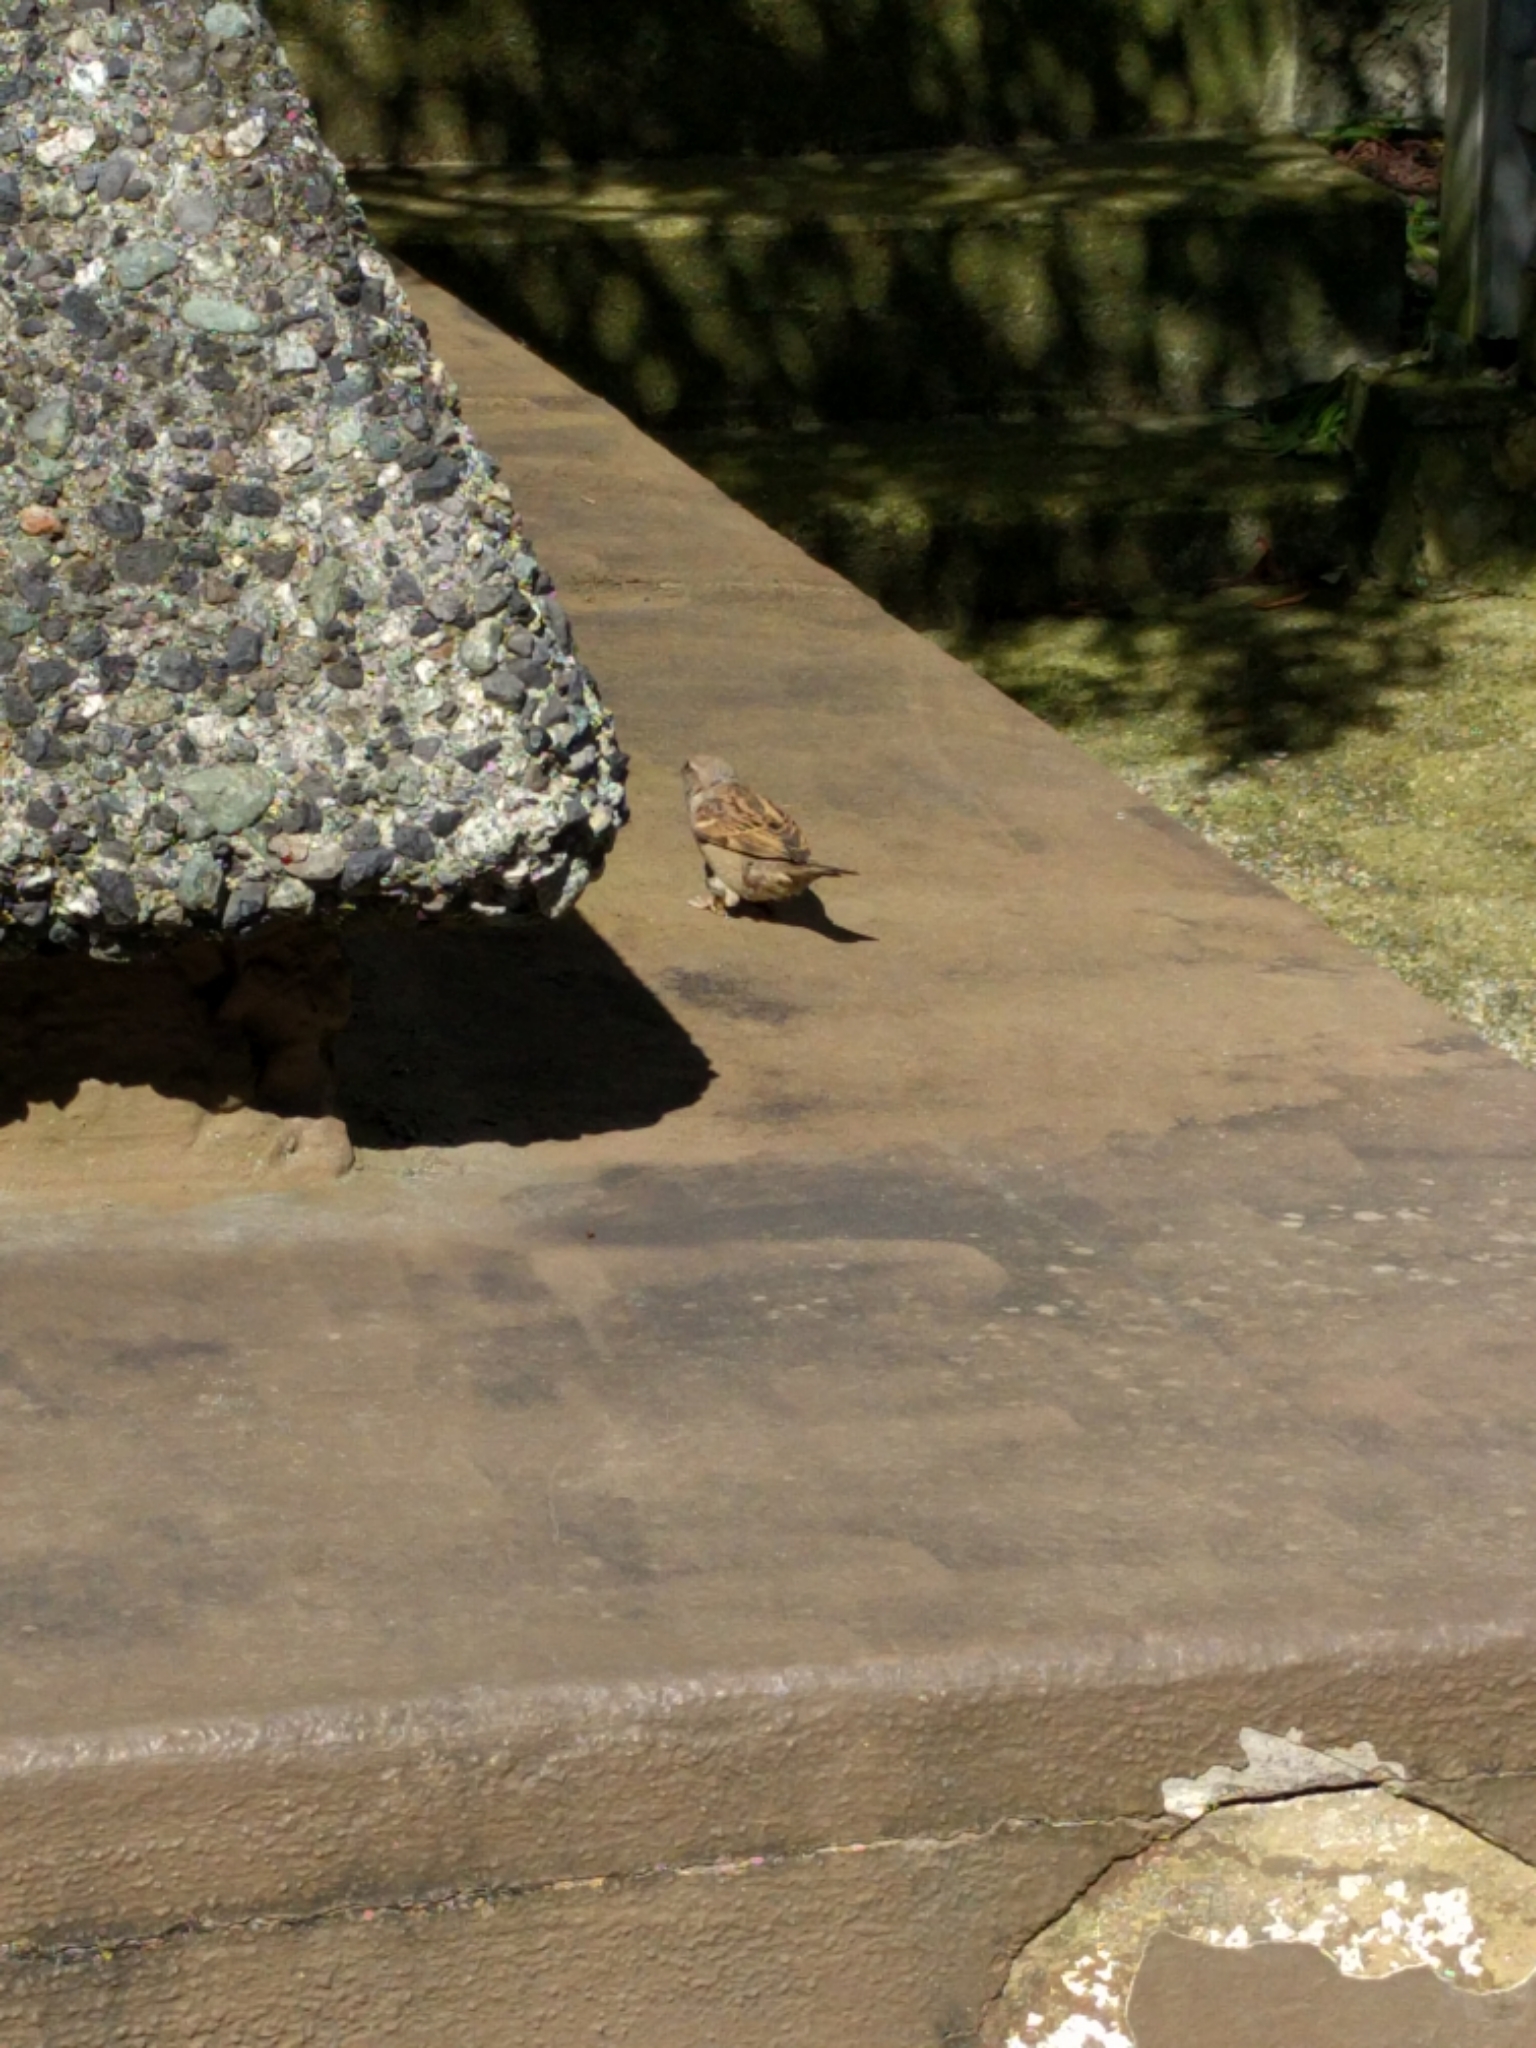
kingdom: Animalia
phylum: Chordata
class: Aves
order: Passeriformes
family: Passeridae
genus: Passer
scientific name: Passer domesticus
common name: House sparrow
